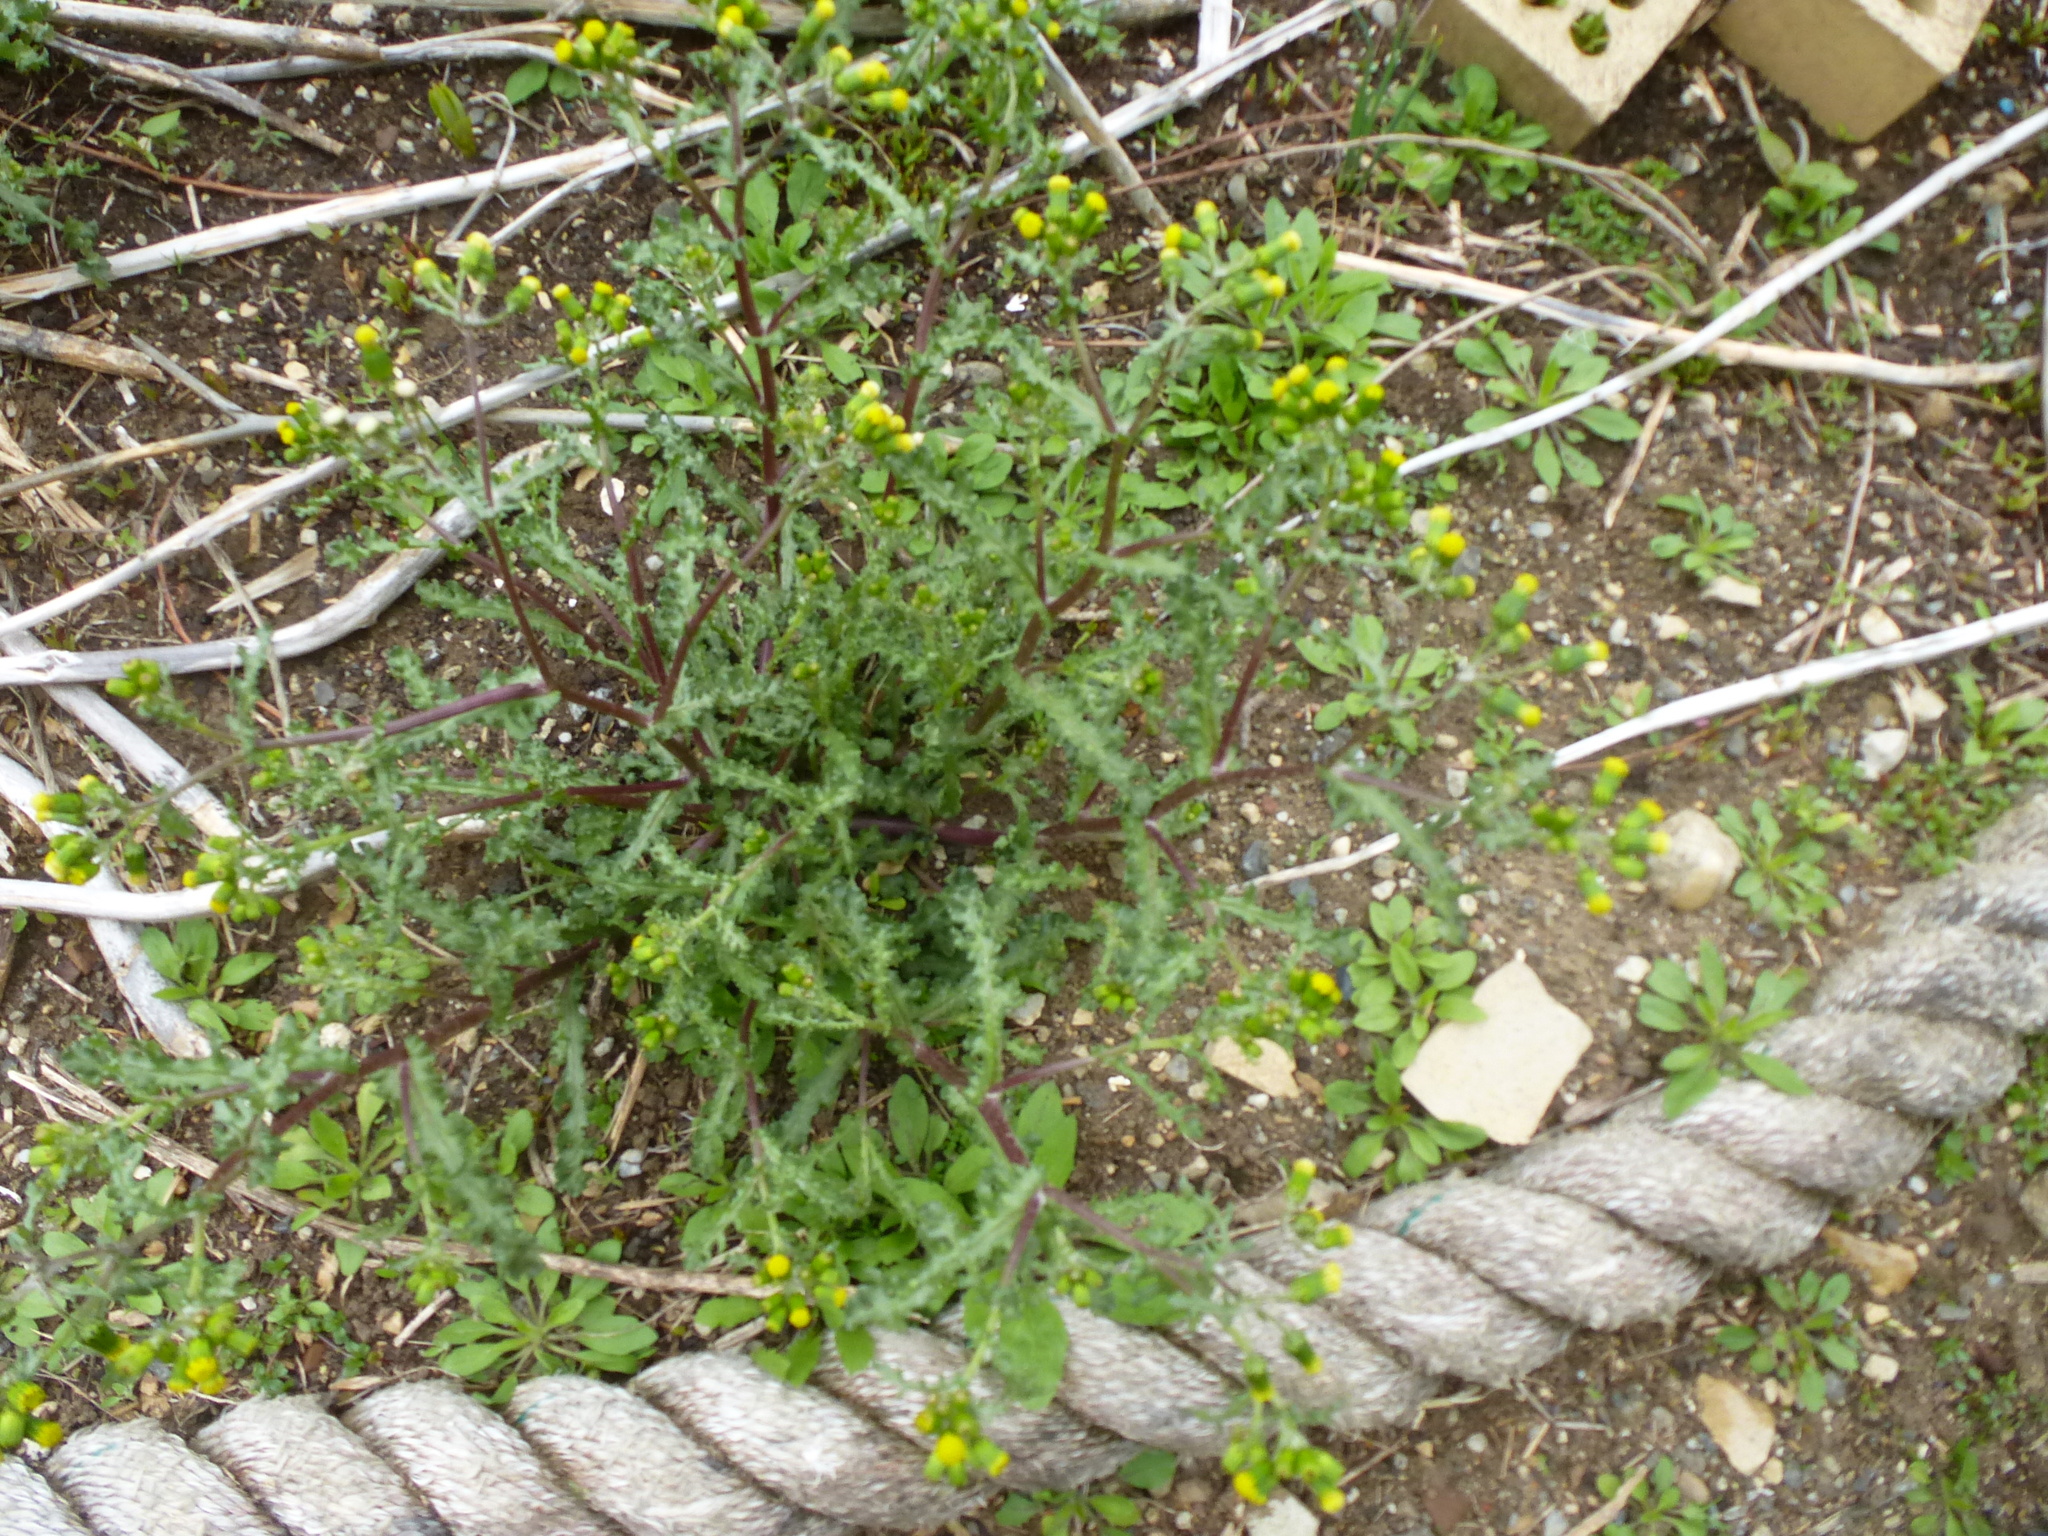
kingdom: Plantae
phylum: Tracheophyta
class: Magnoliopsida
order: Asterales
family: Asteraceae
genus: Senecio
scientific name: Senecio vulgaris
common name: Old-man-in-the-spring
